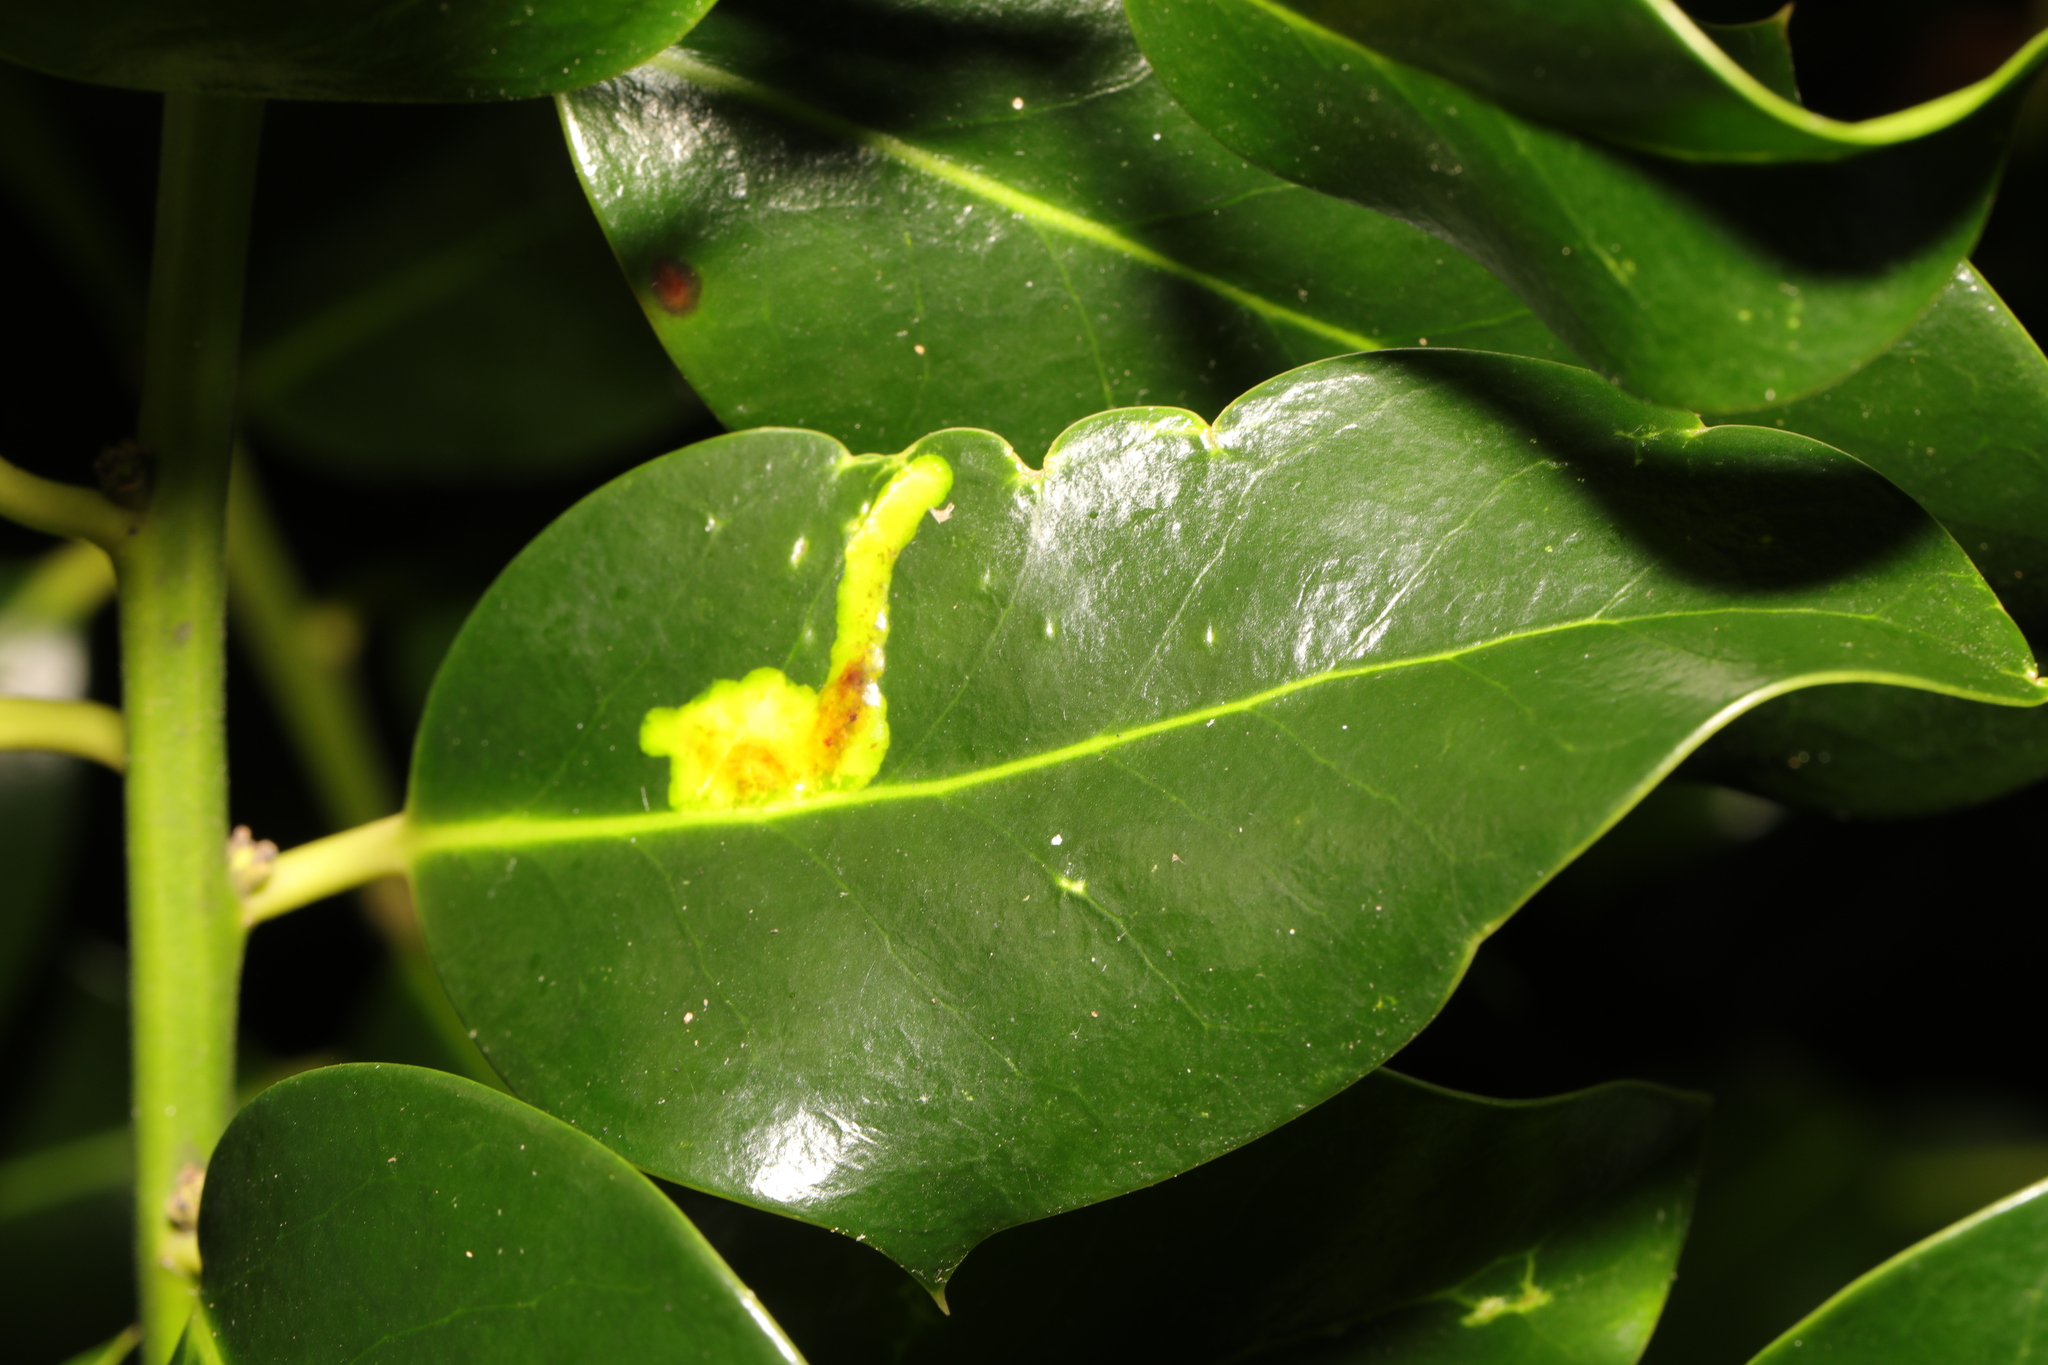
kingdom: Animalia
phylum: Arthropoda
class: Insecta
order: Diptera
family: Agromyzidae
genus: Phytomyza
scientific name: Phytomyza ilicis
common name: Holly leafminer
